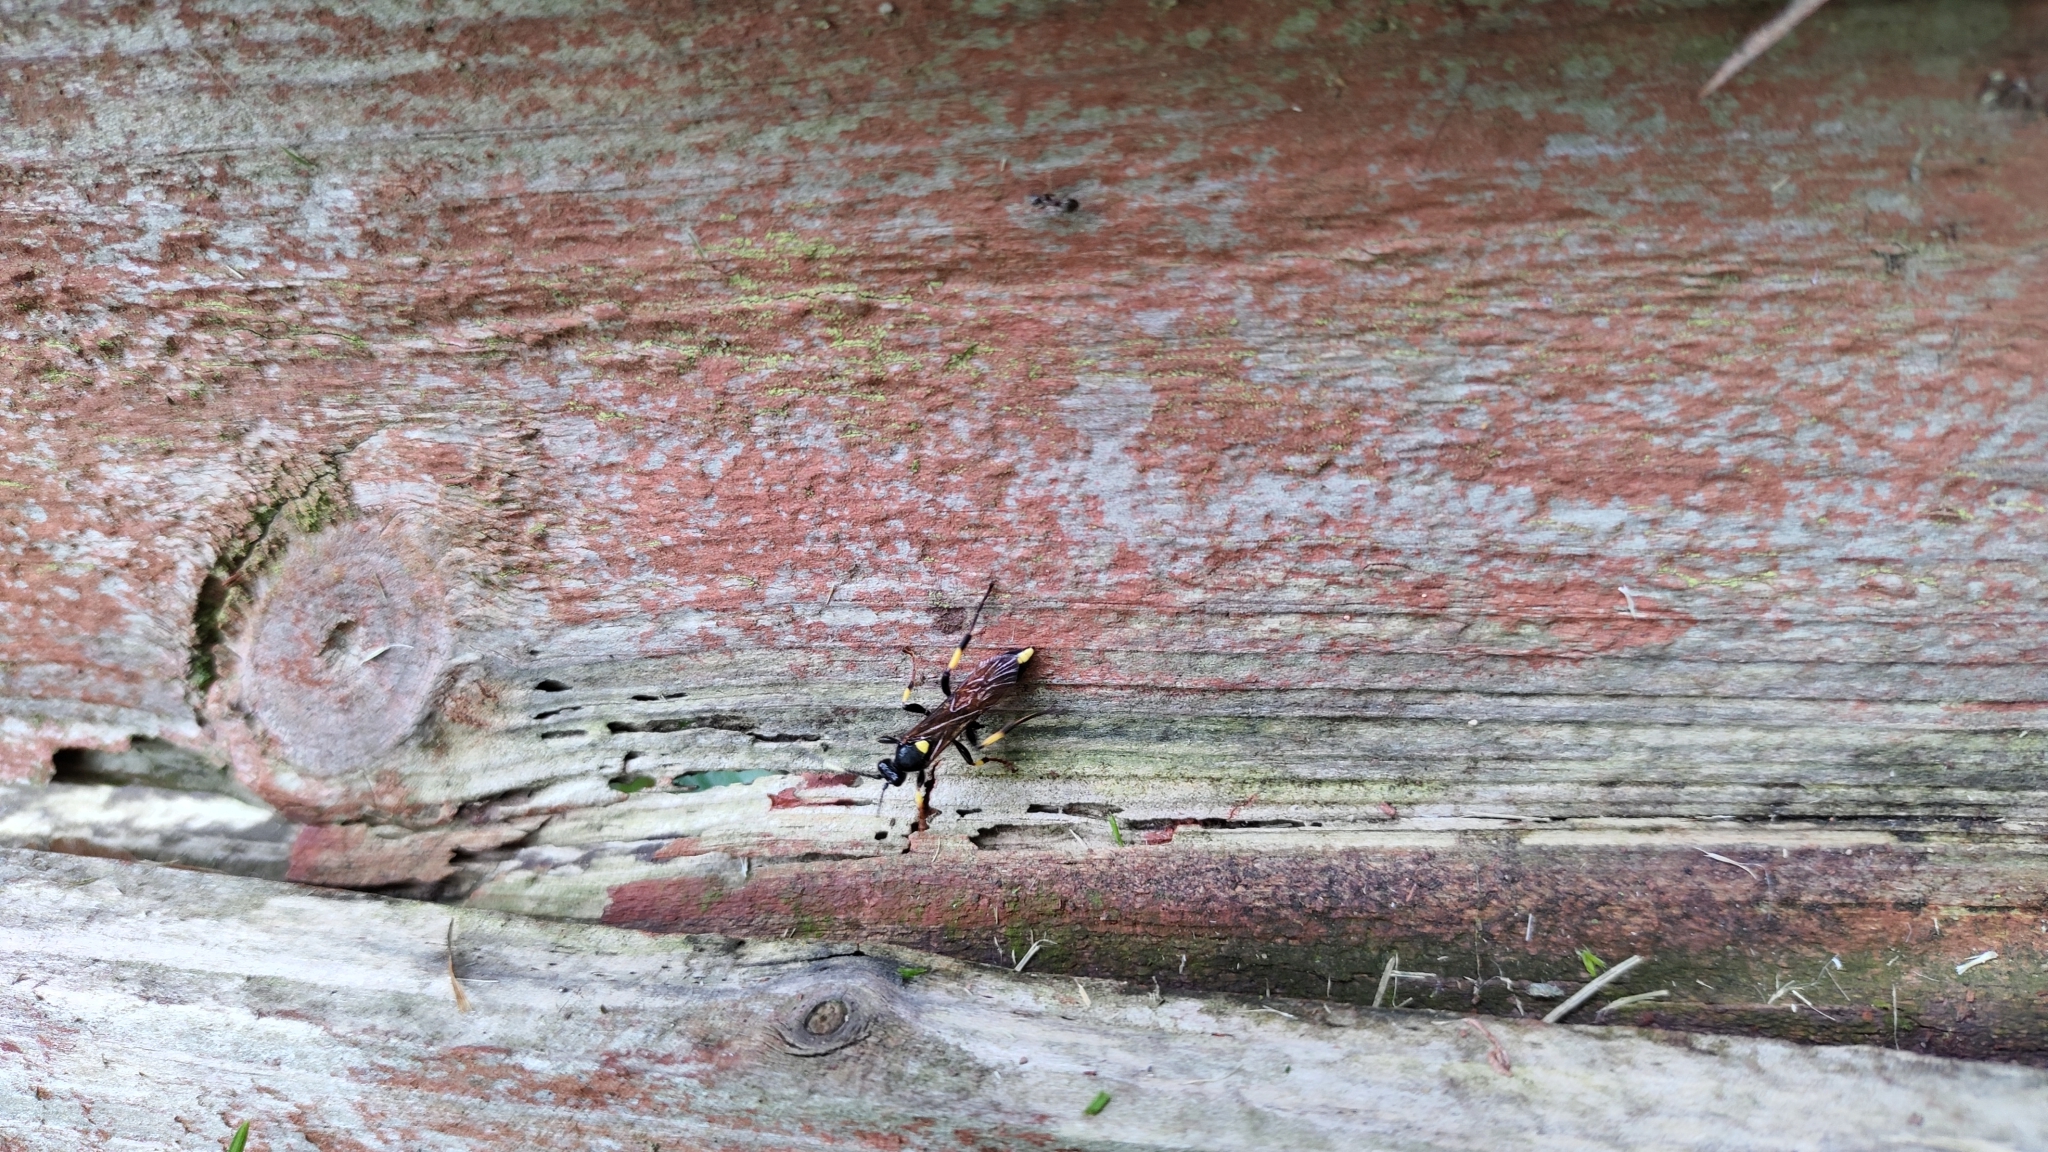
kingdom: Animalia
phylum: Arthropoda
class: Insecta
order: Hymenoptera
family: Ichneumonidae
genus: Ichneumon
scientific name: Ichneumon stramentor
